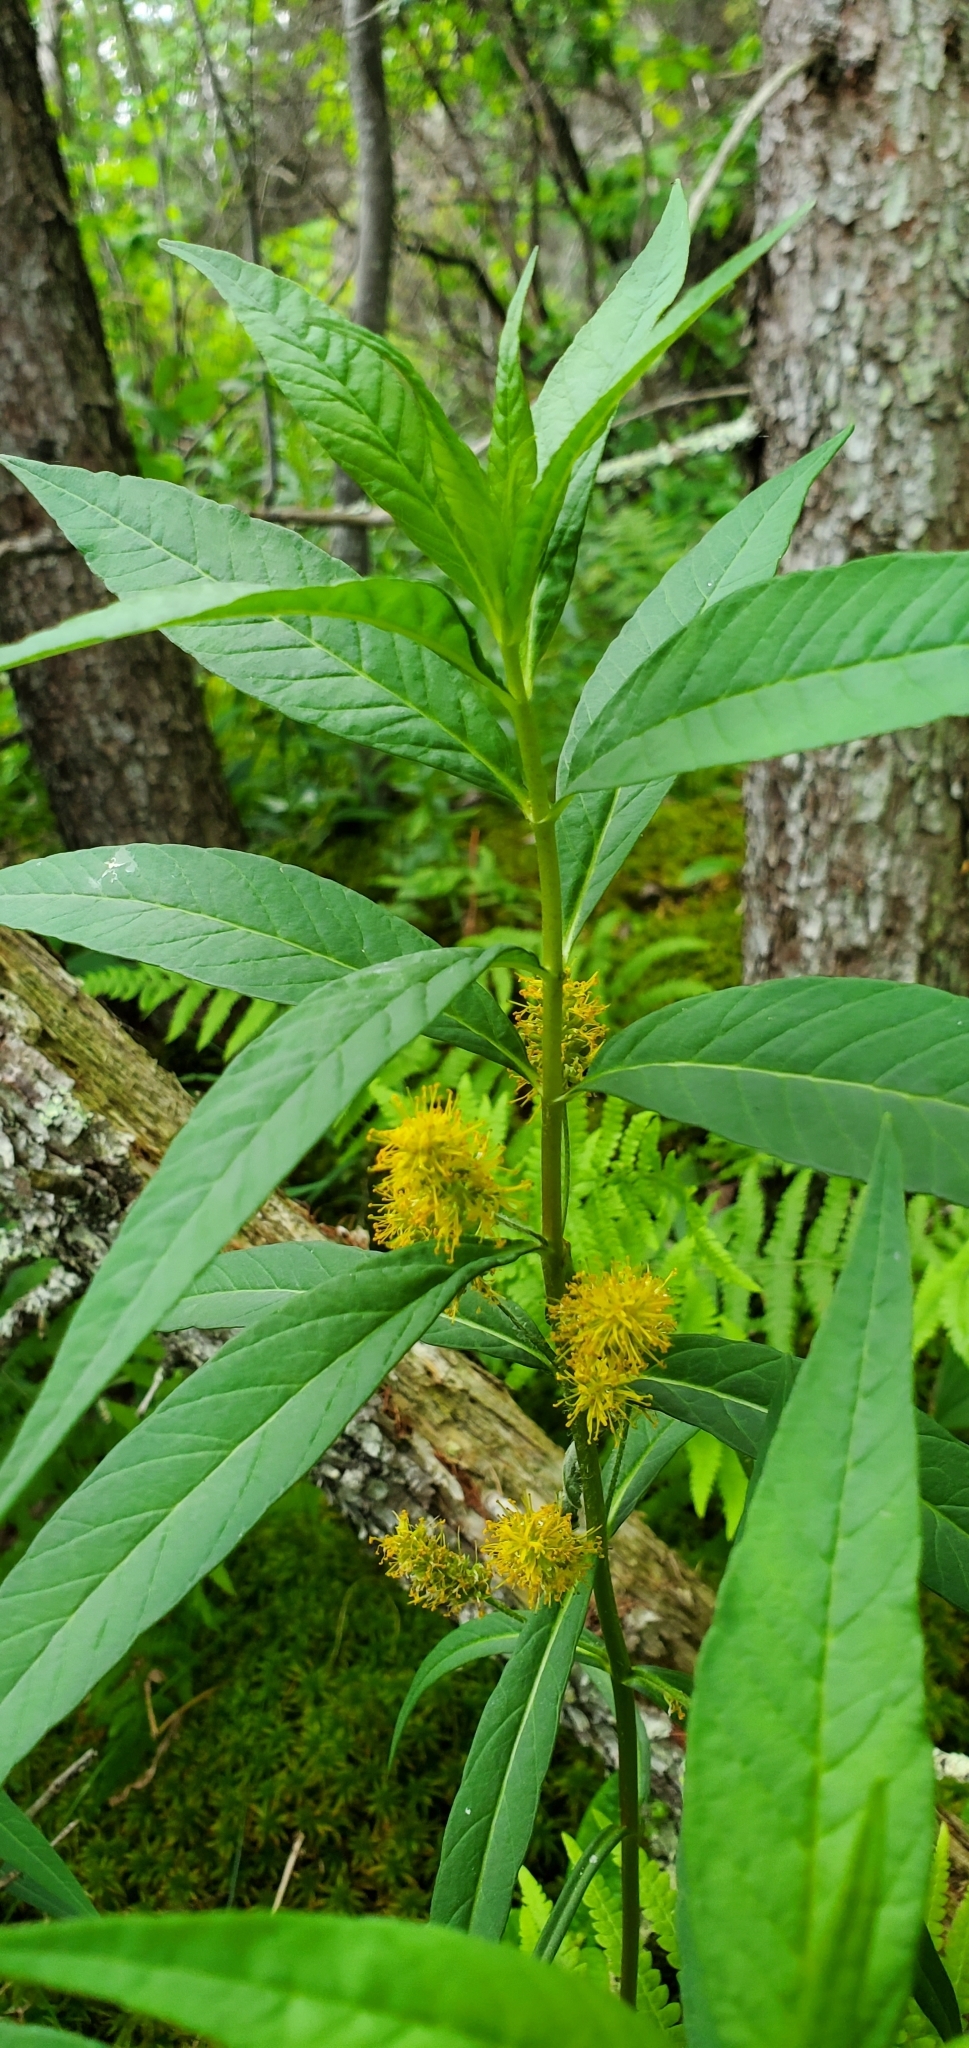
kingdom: Plantae
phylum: Tracheophyta
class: Magnoliopsida
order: Ericales
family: Primulaceae
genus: Lysimachia
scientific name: Lysimachia thyrsiflora
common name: Tufted loosestrife
